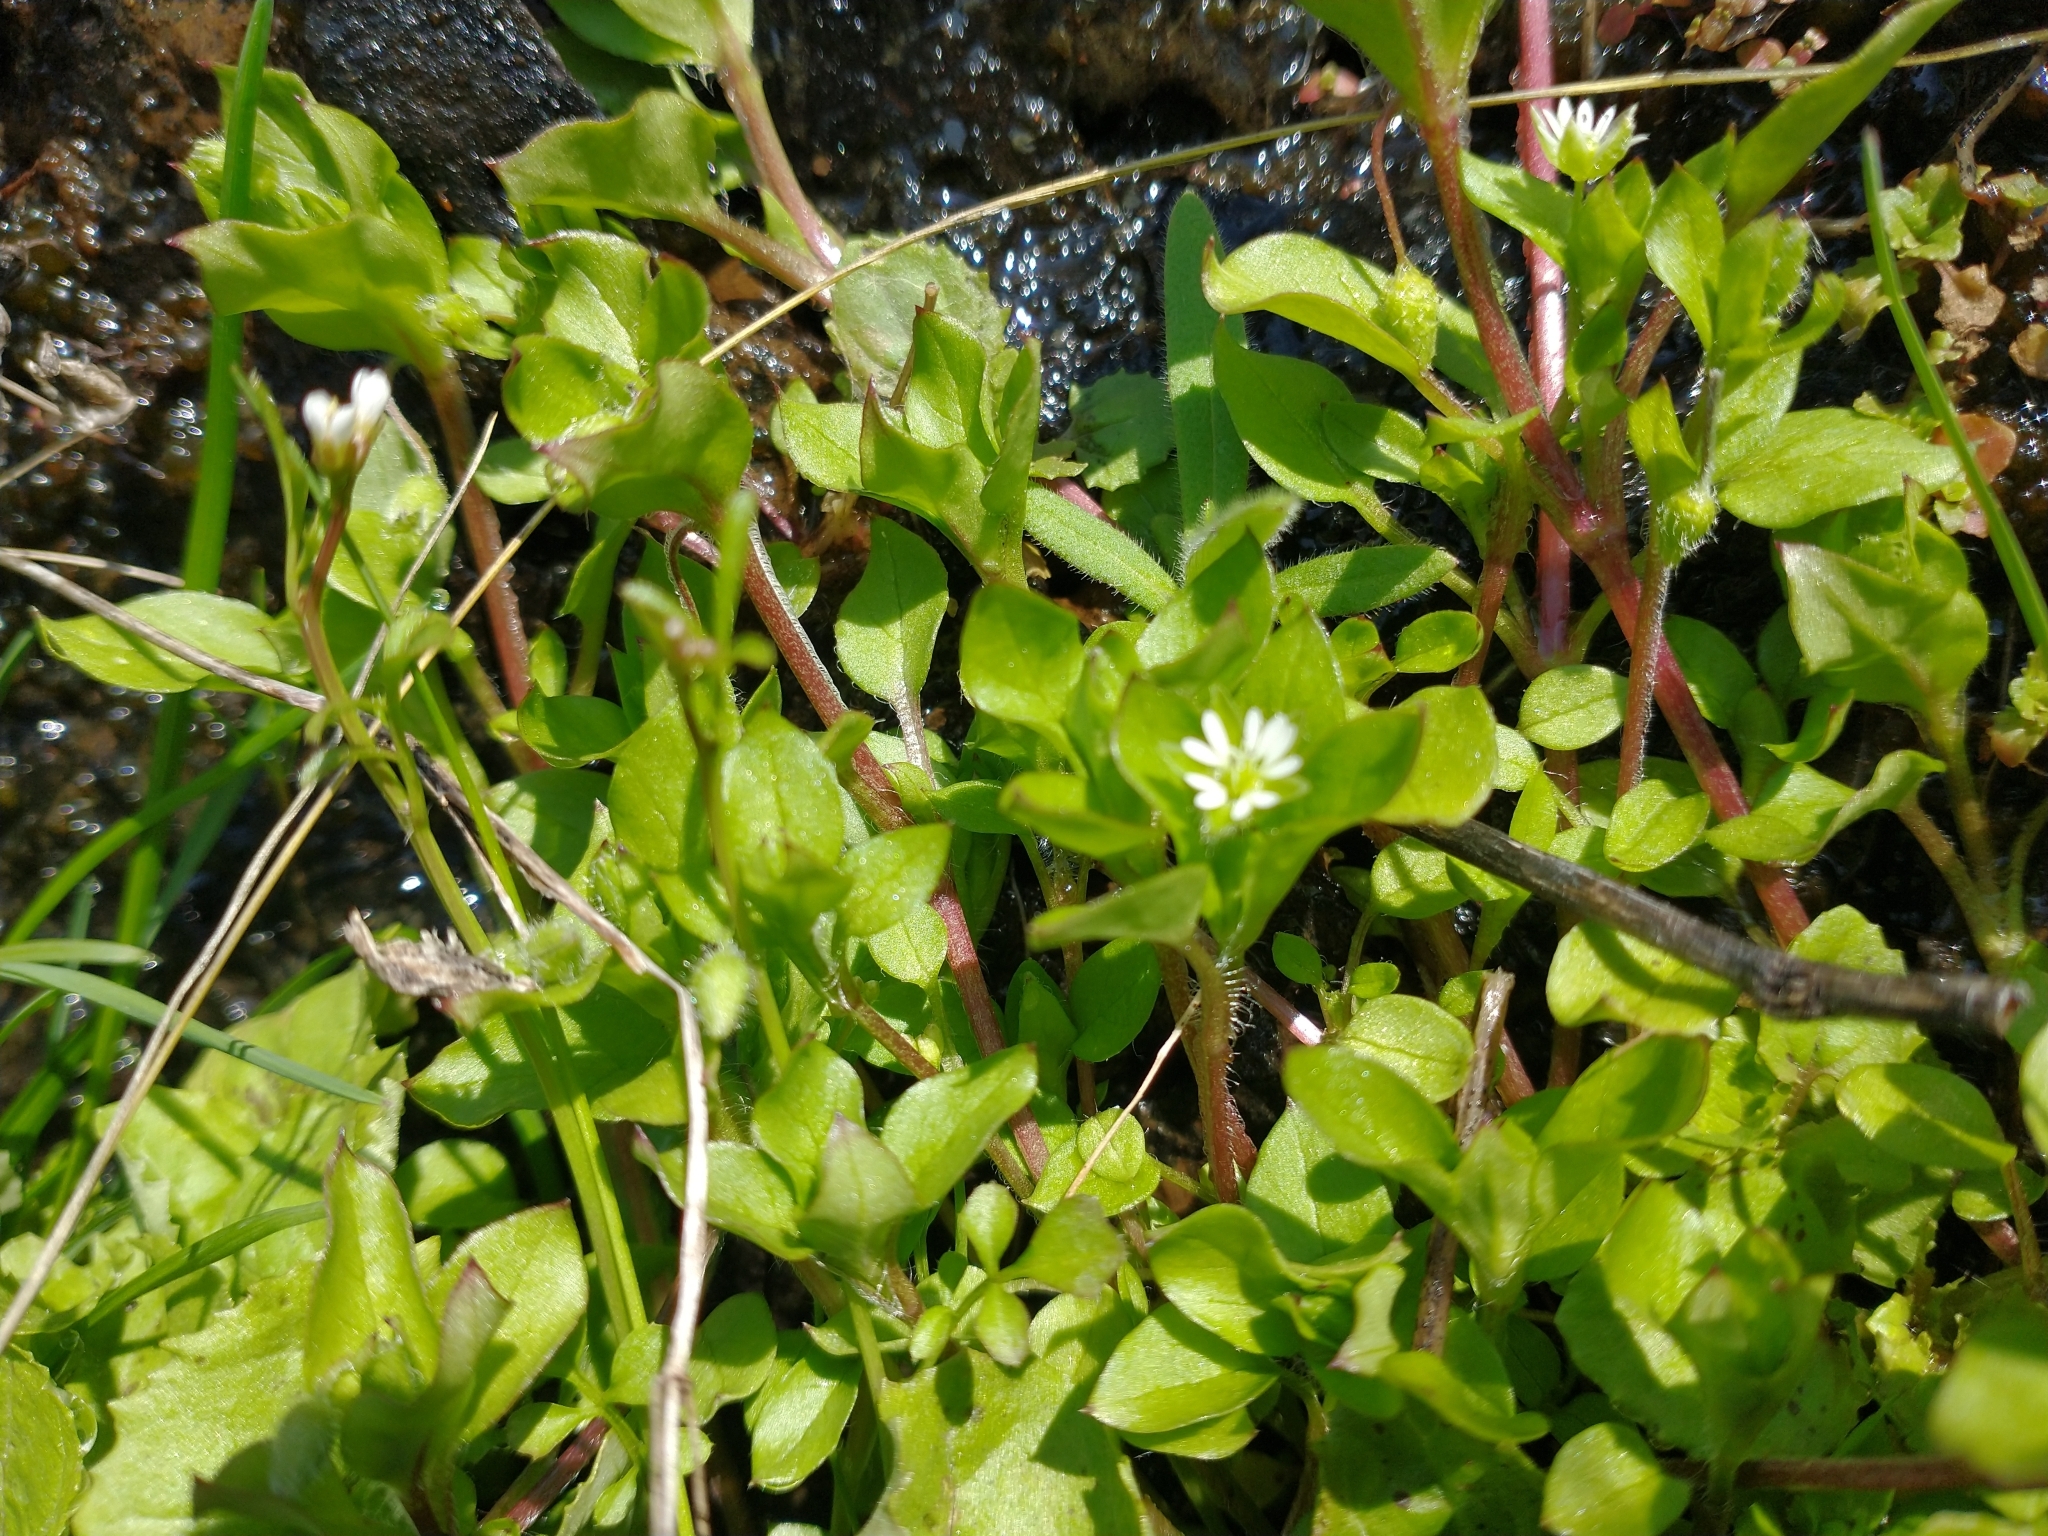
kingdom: Plantae
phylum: Tracheophyta
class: Magnoliopsida
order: Caryophyllales
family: Caryophyllaceae
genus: Stellaria
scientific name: Stellaria media
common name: Common chickweed
